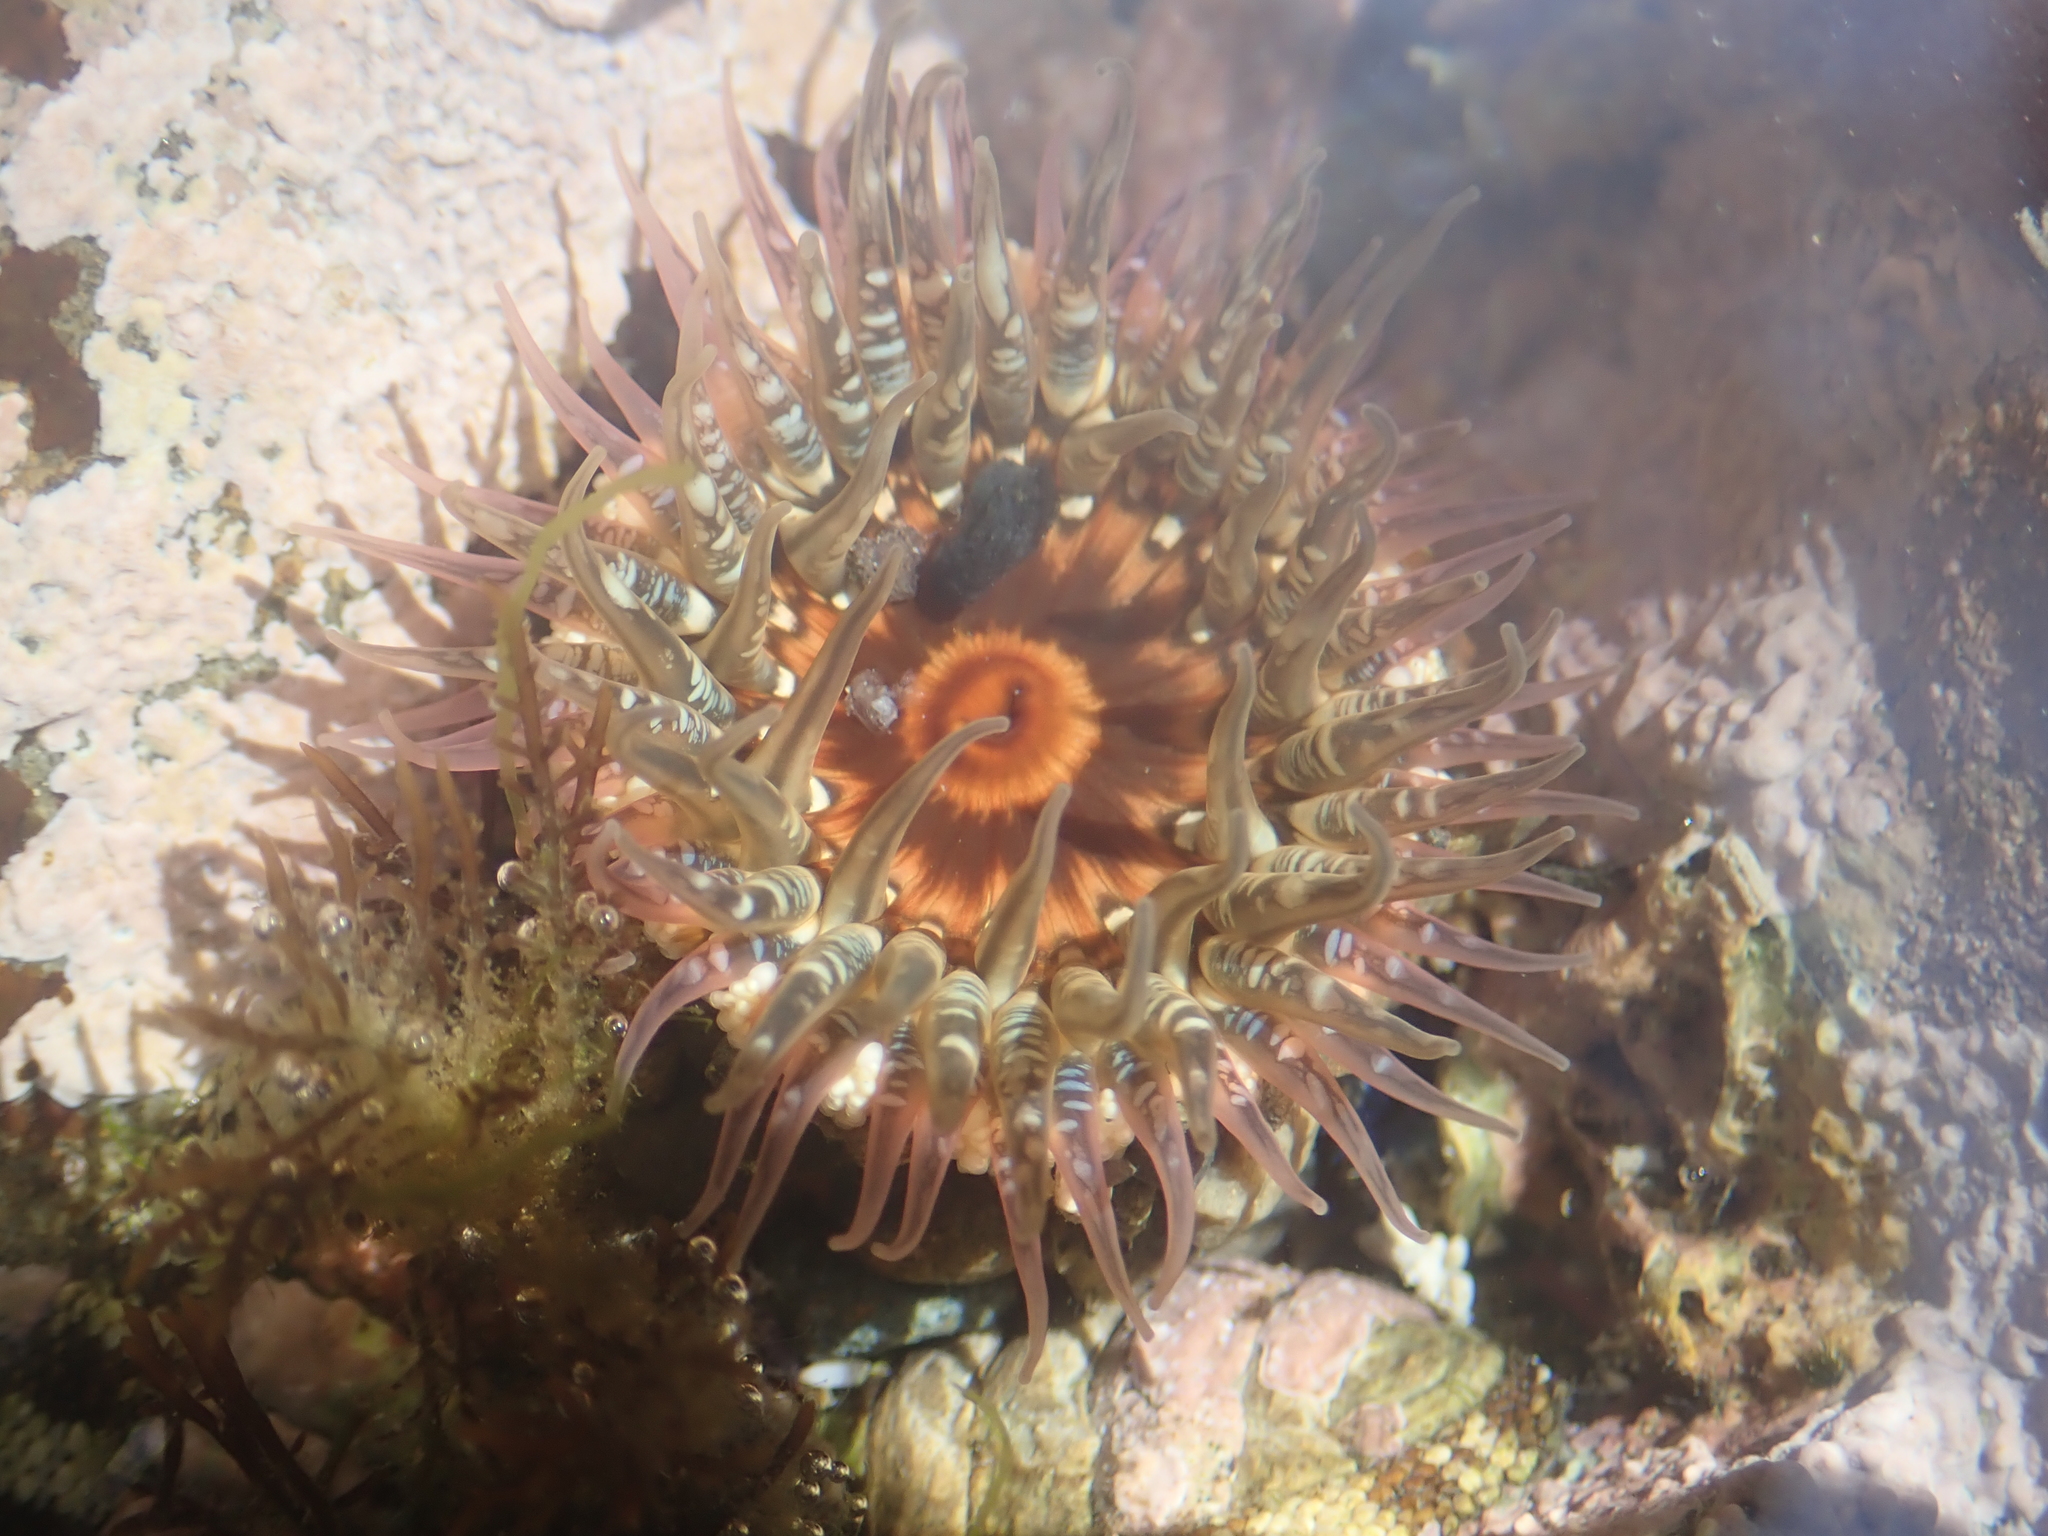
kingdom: Animalia
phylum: Cnidaria
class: Anthozoa
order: Actiniaria
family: Actiniidae
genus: Oulactis
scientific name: Oulactis muscosa
